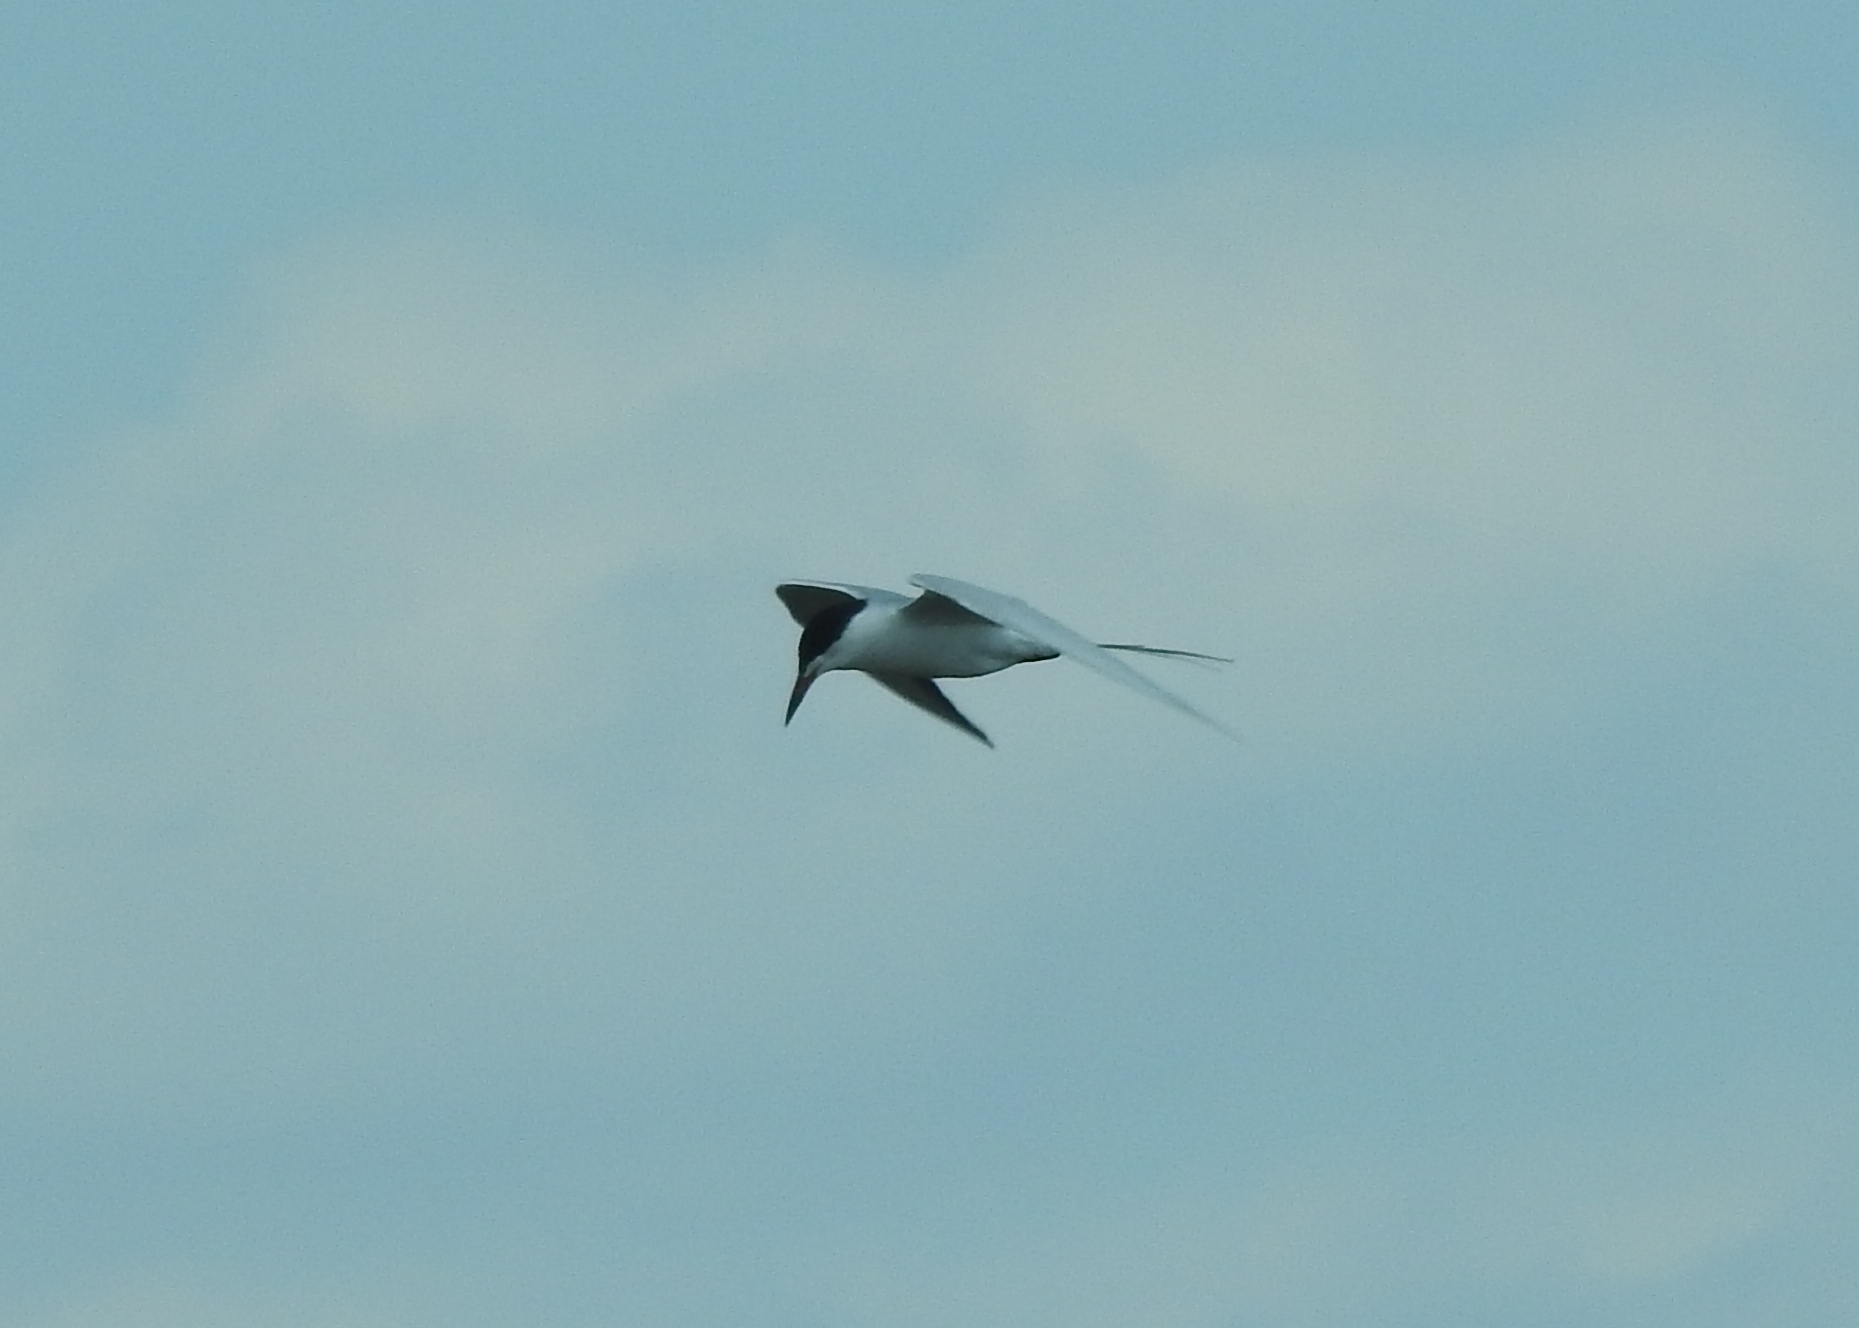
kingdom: Animalia
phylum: Chordata
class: Aves
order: Charadriiformes
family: Laridae
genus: Sterna
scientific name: Sterna
